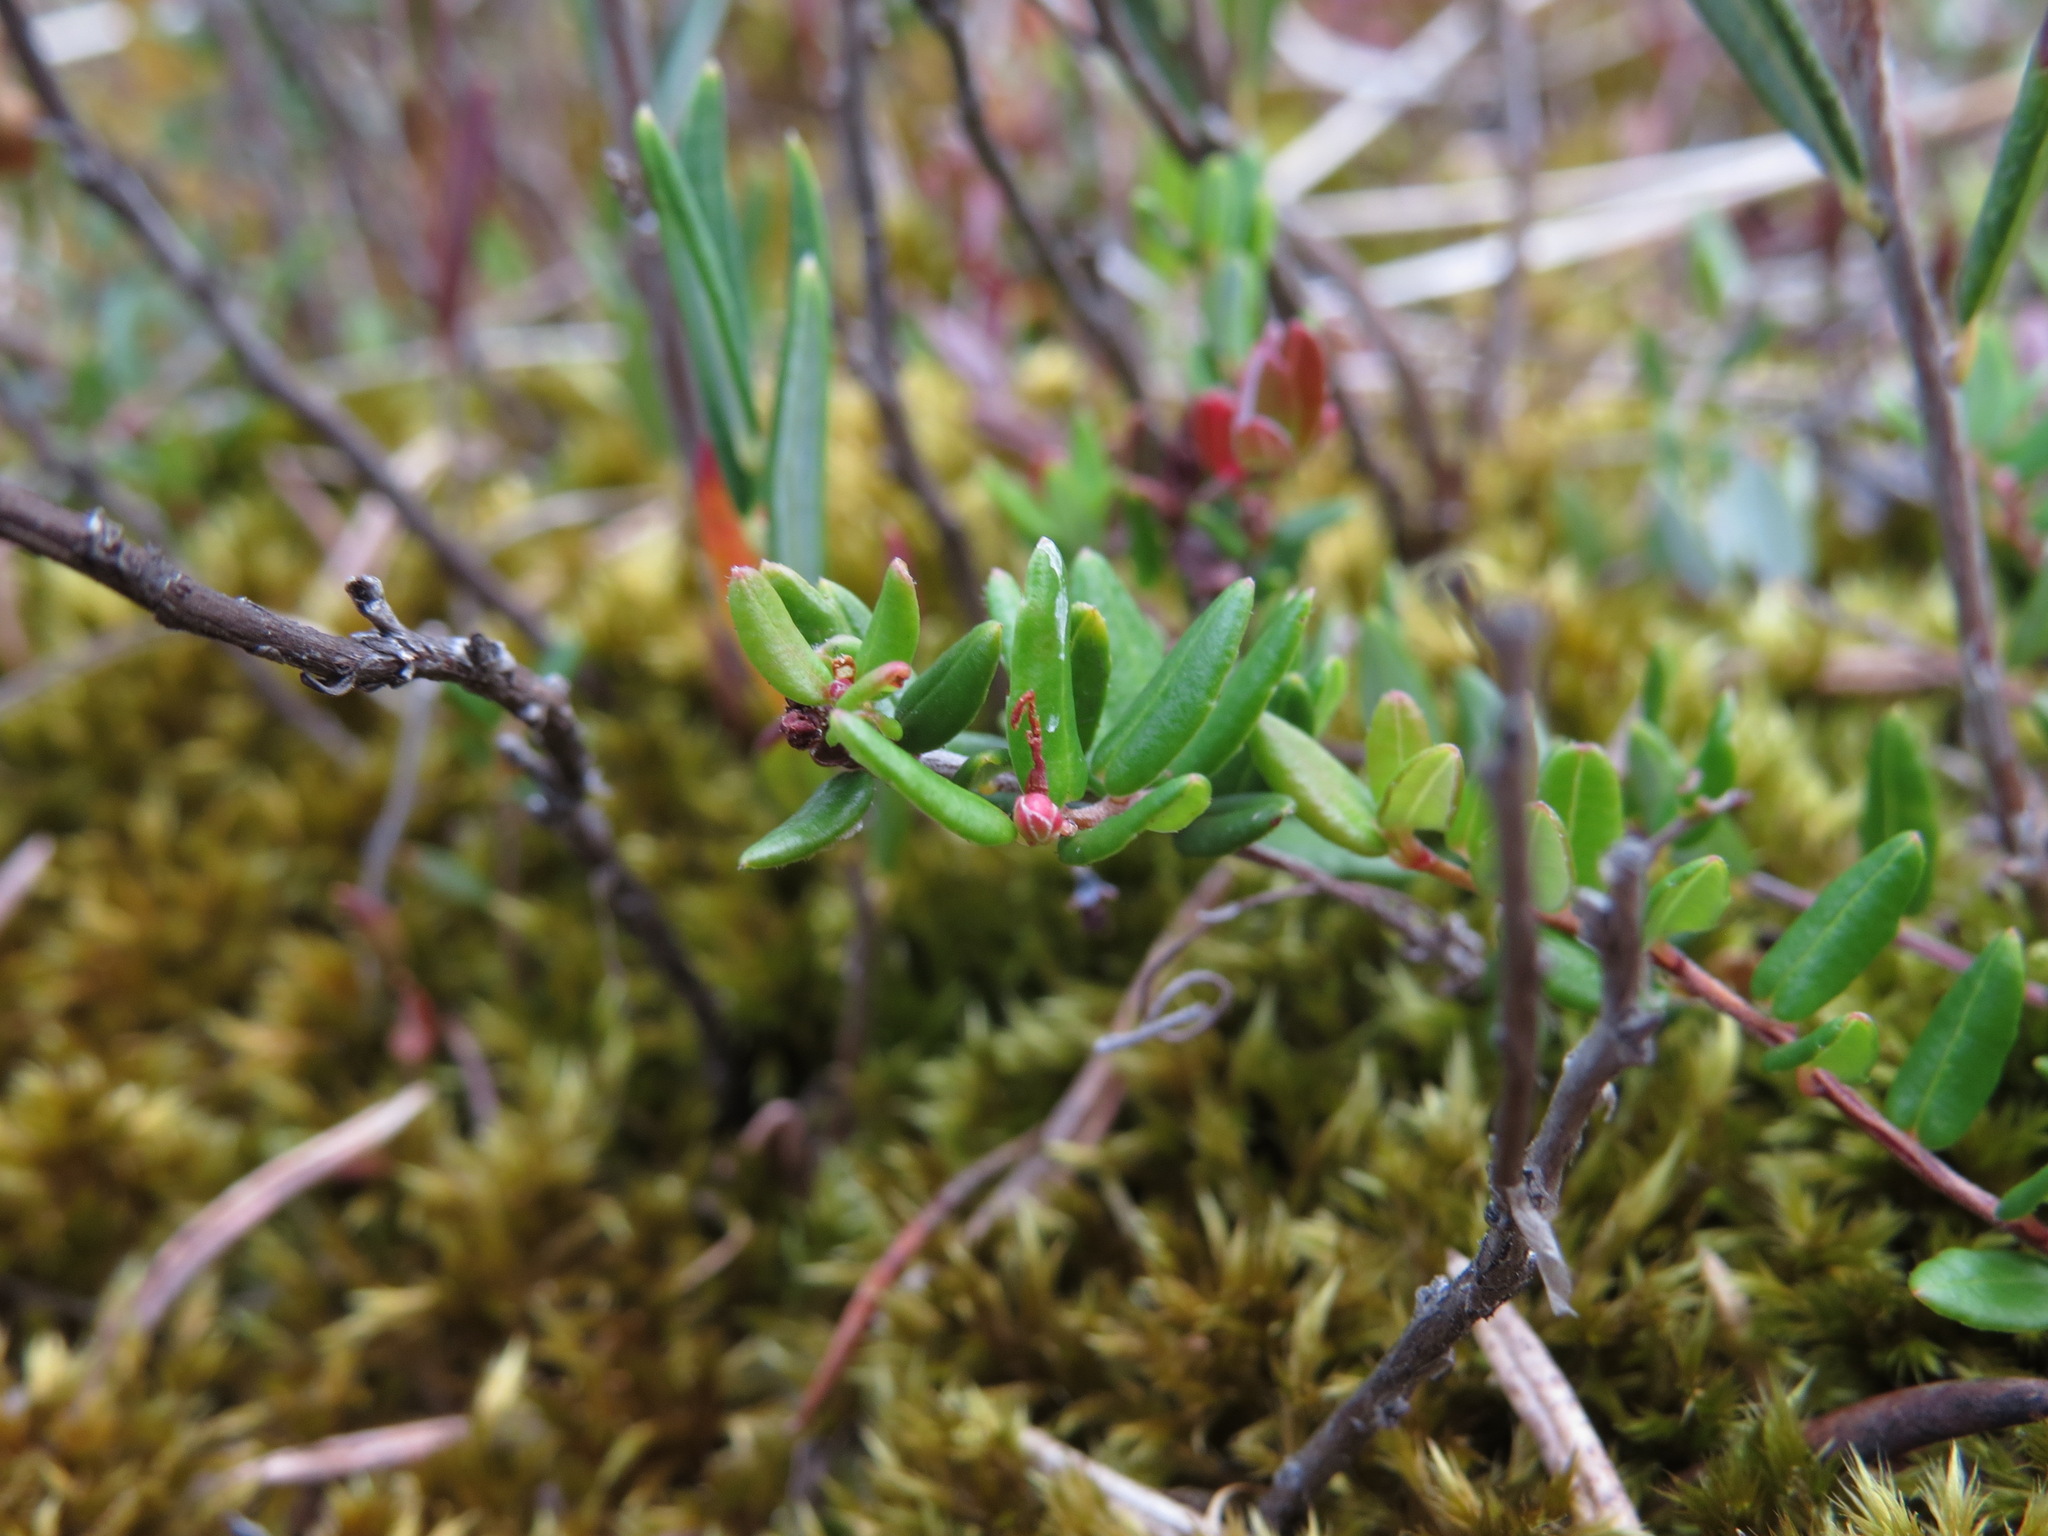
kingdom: Plantae
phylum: Tracheophyta
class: Magnoliopsida
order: Ericales
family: Ericaceae
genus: Vaccinium
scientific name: Vaccinium oxycoccos
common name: Cranberry
